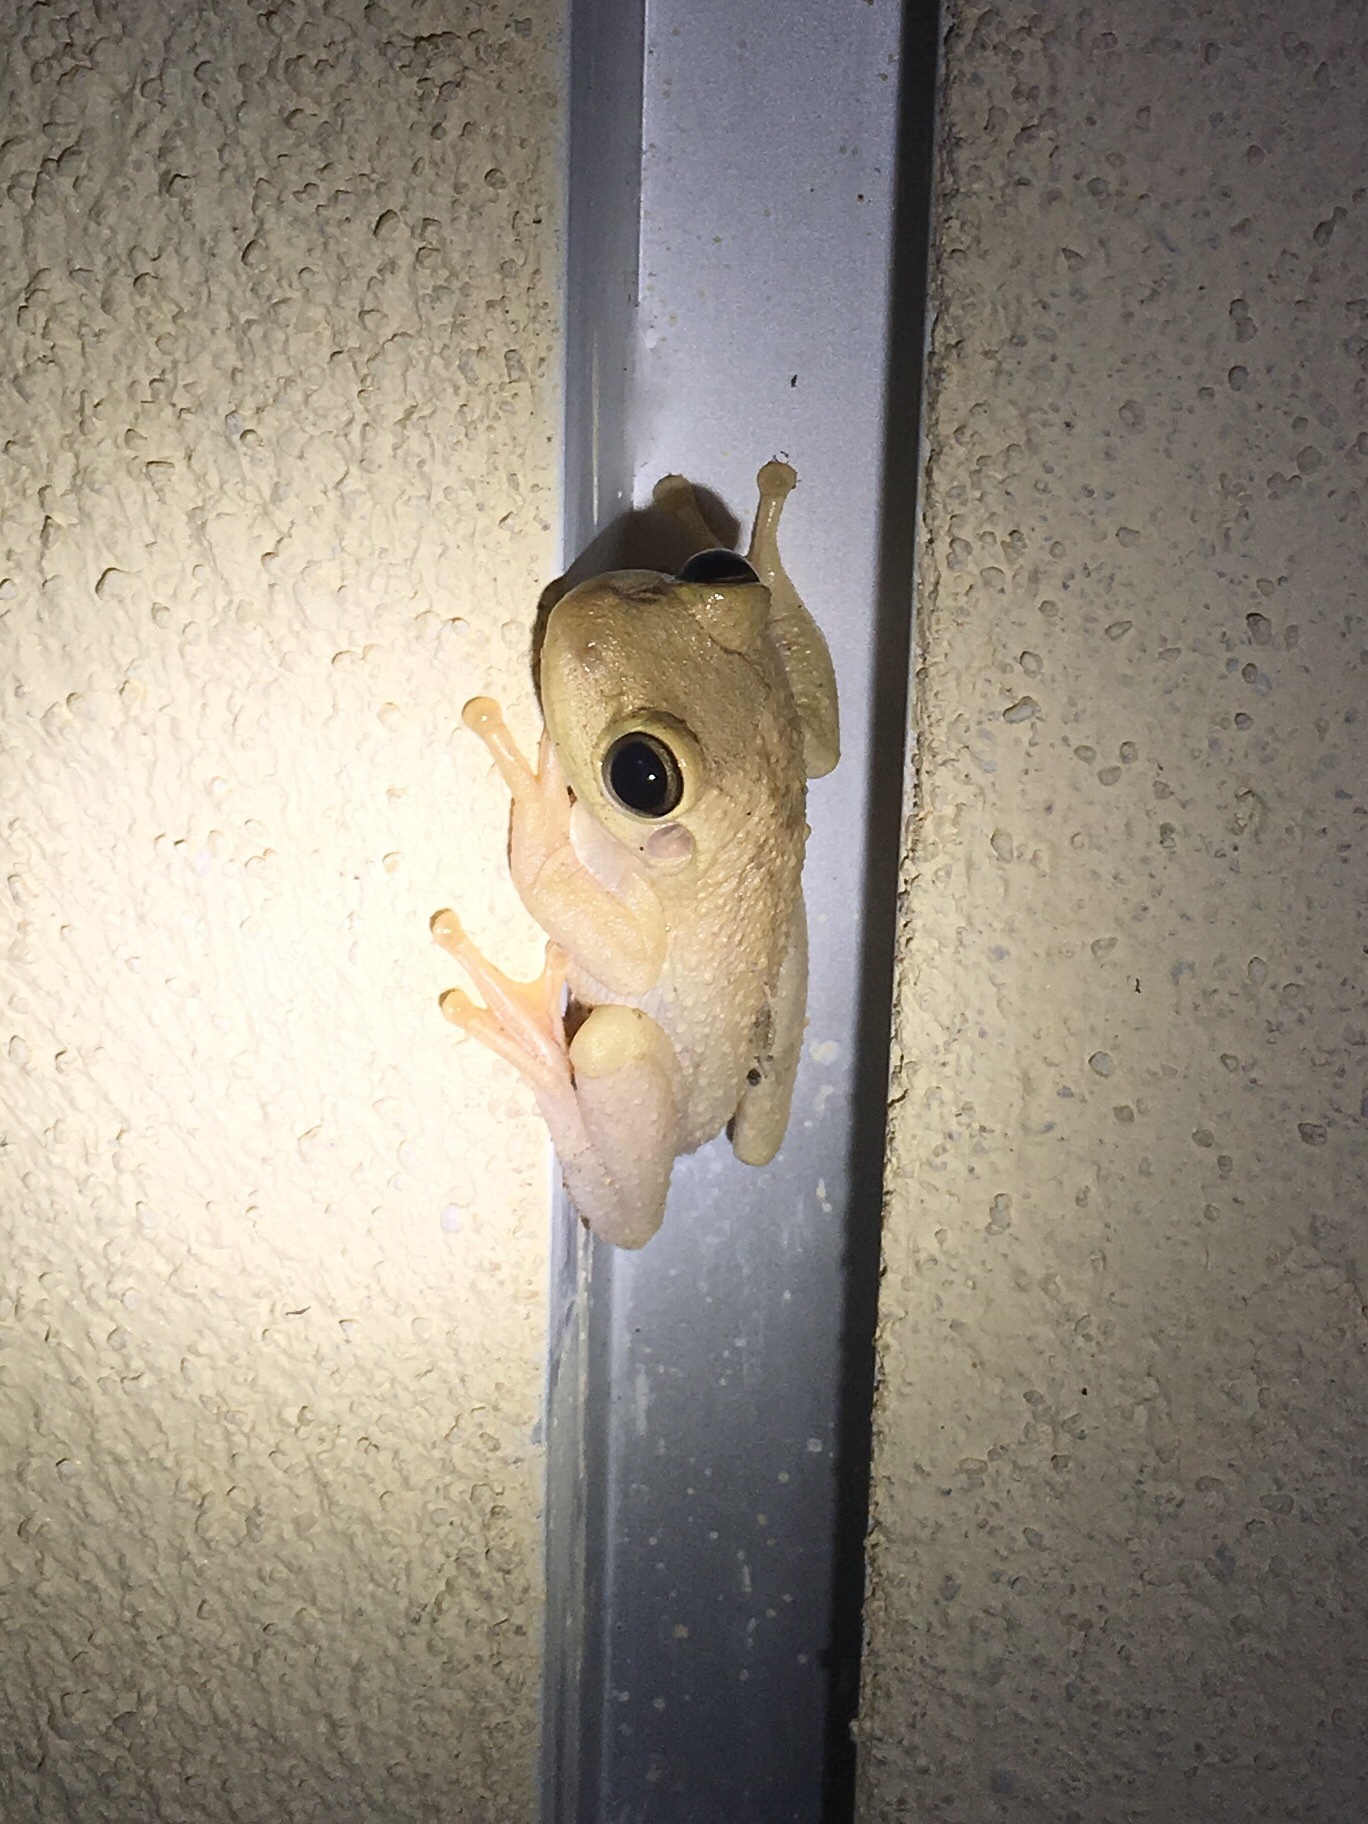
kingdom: Animalia
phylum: Chordata
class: Amphibia
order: Anura
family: Hylidae
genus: Osteopilus
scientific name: Osteopilus septentrionalis
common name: Cuban treefrog
